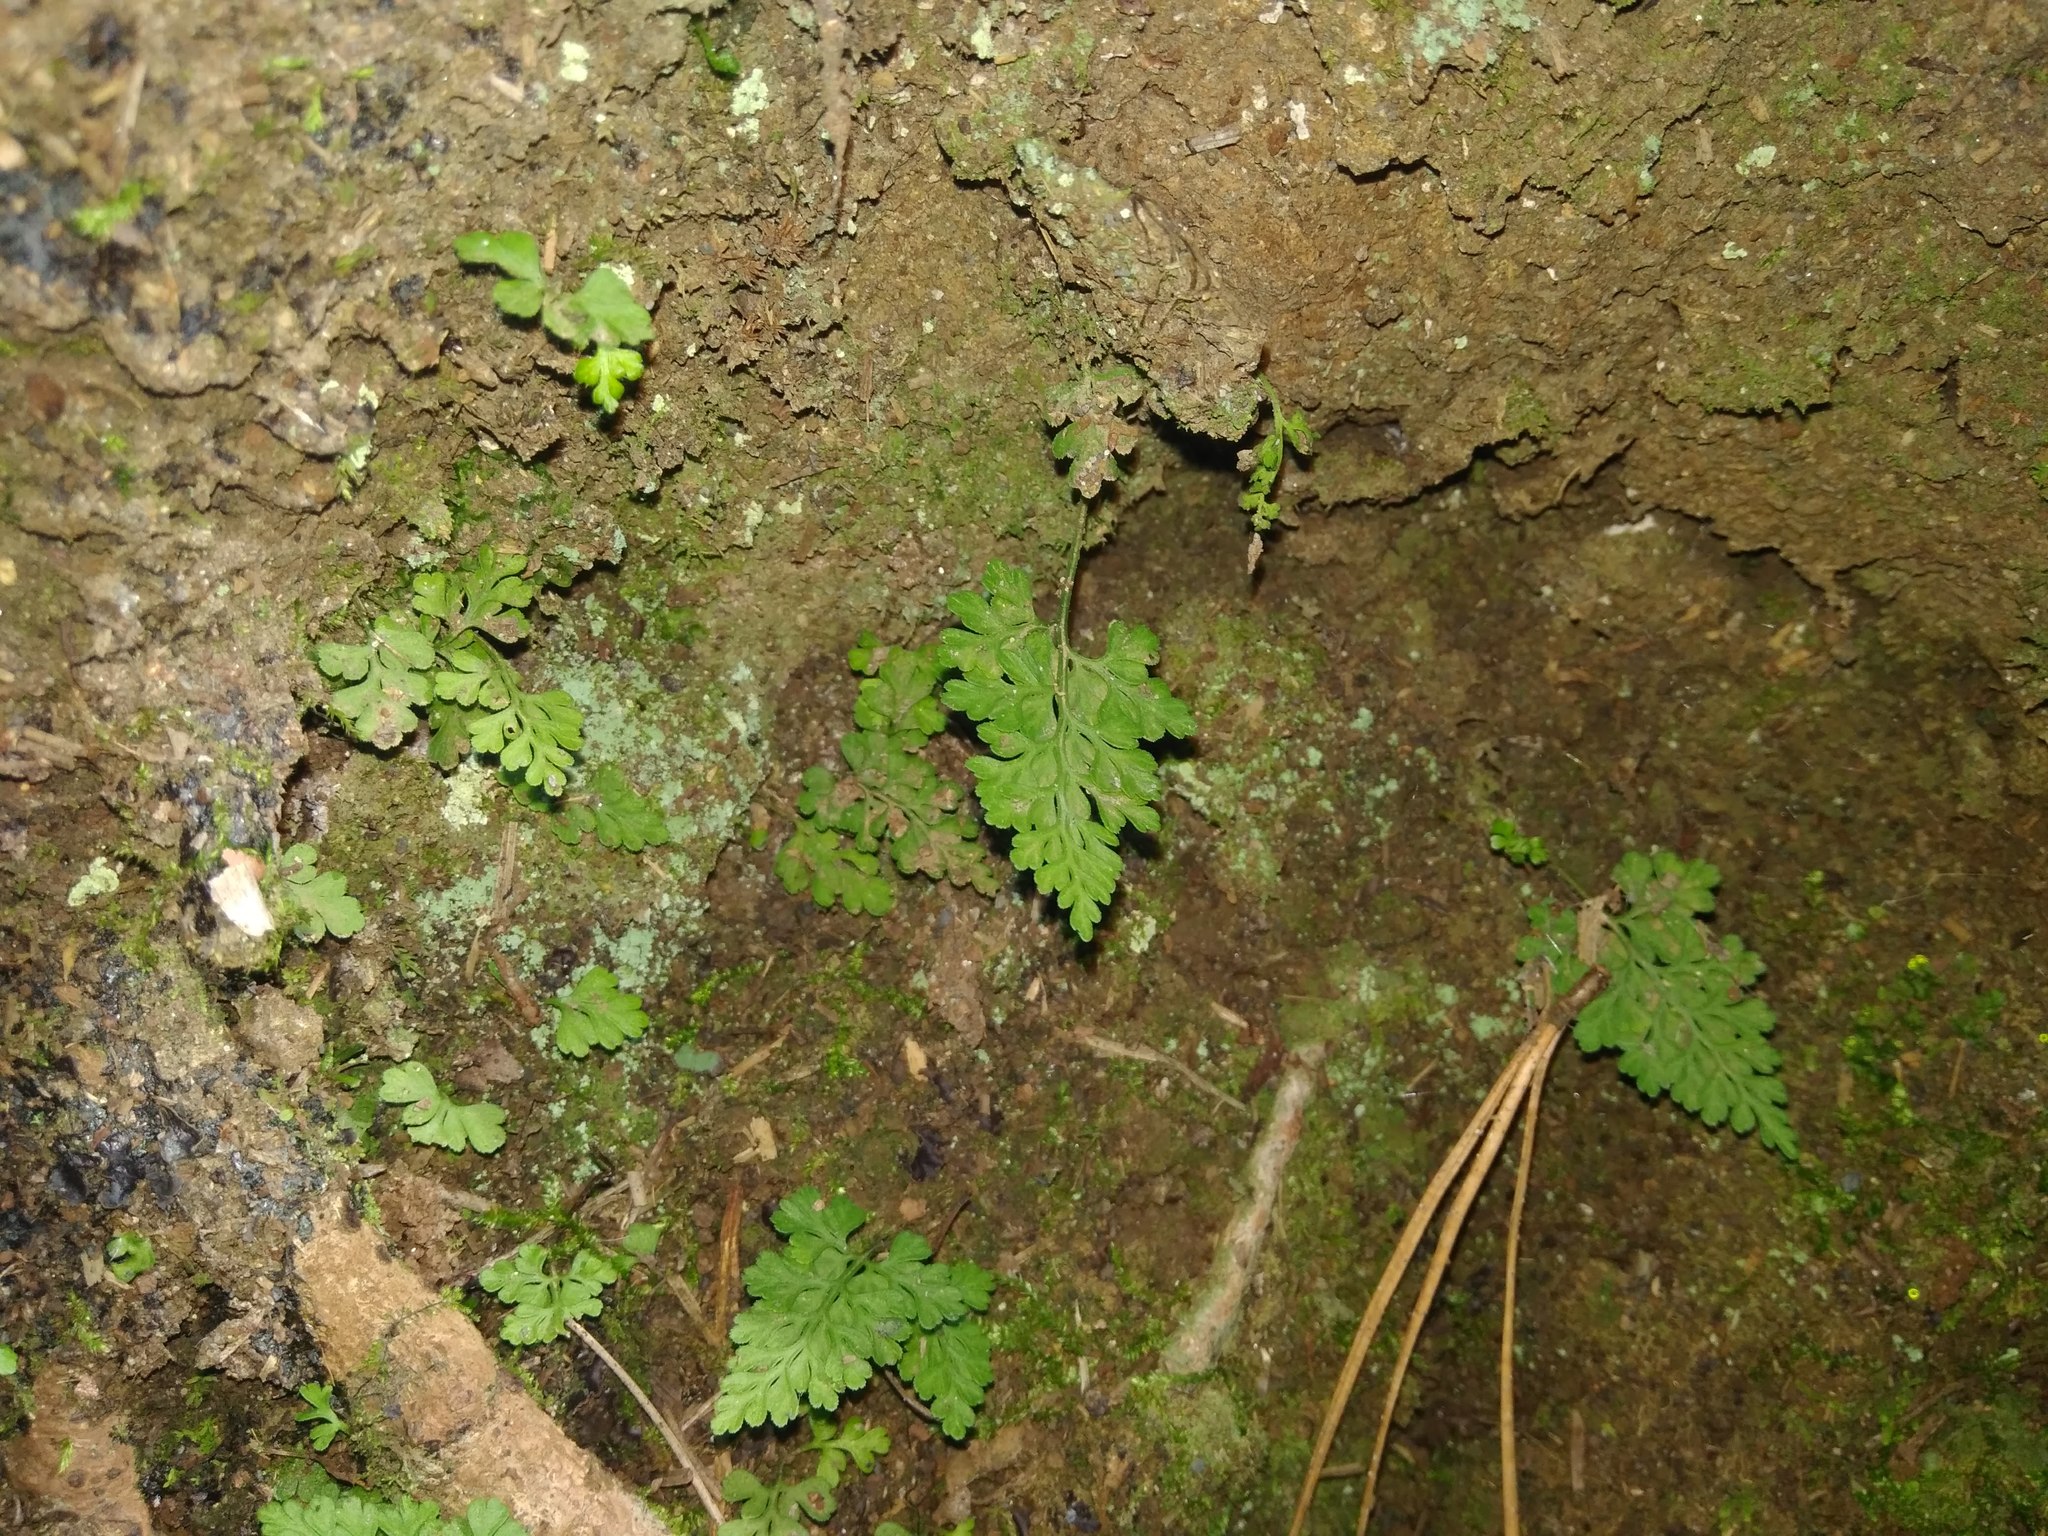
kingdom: Plantae
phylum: Tracheophyta
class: Polypodiopsida
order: Polypodiales
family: Aspleniaceae
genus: Asplenium
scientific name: Asplenium dareoides
